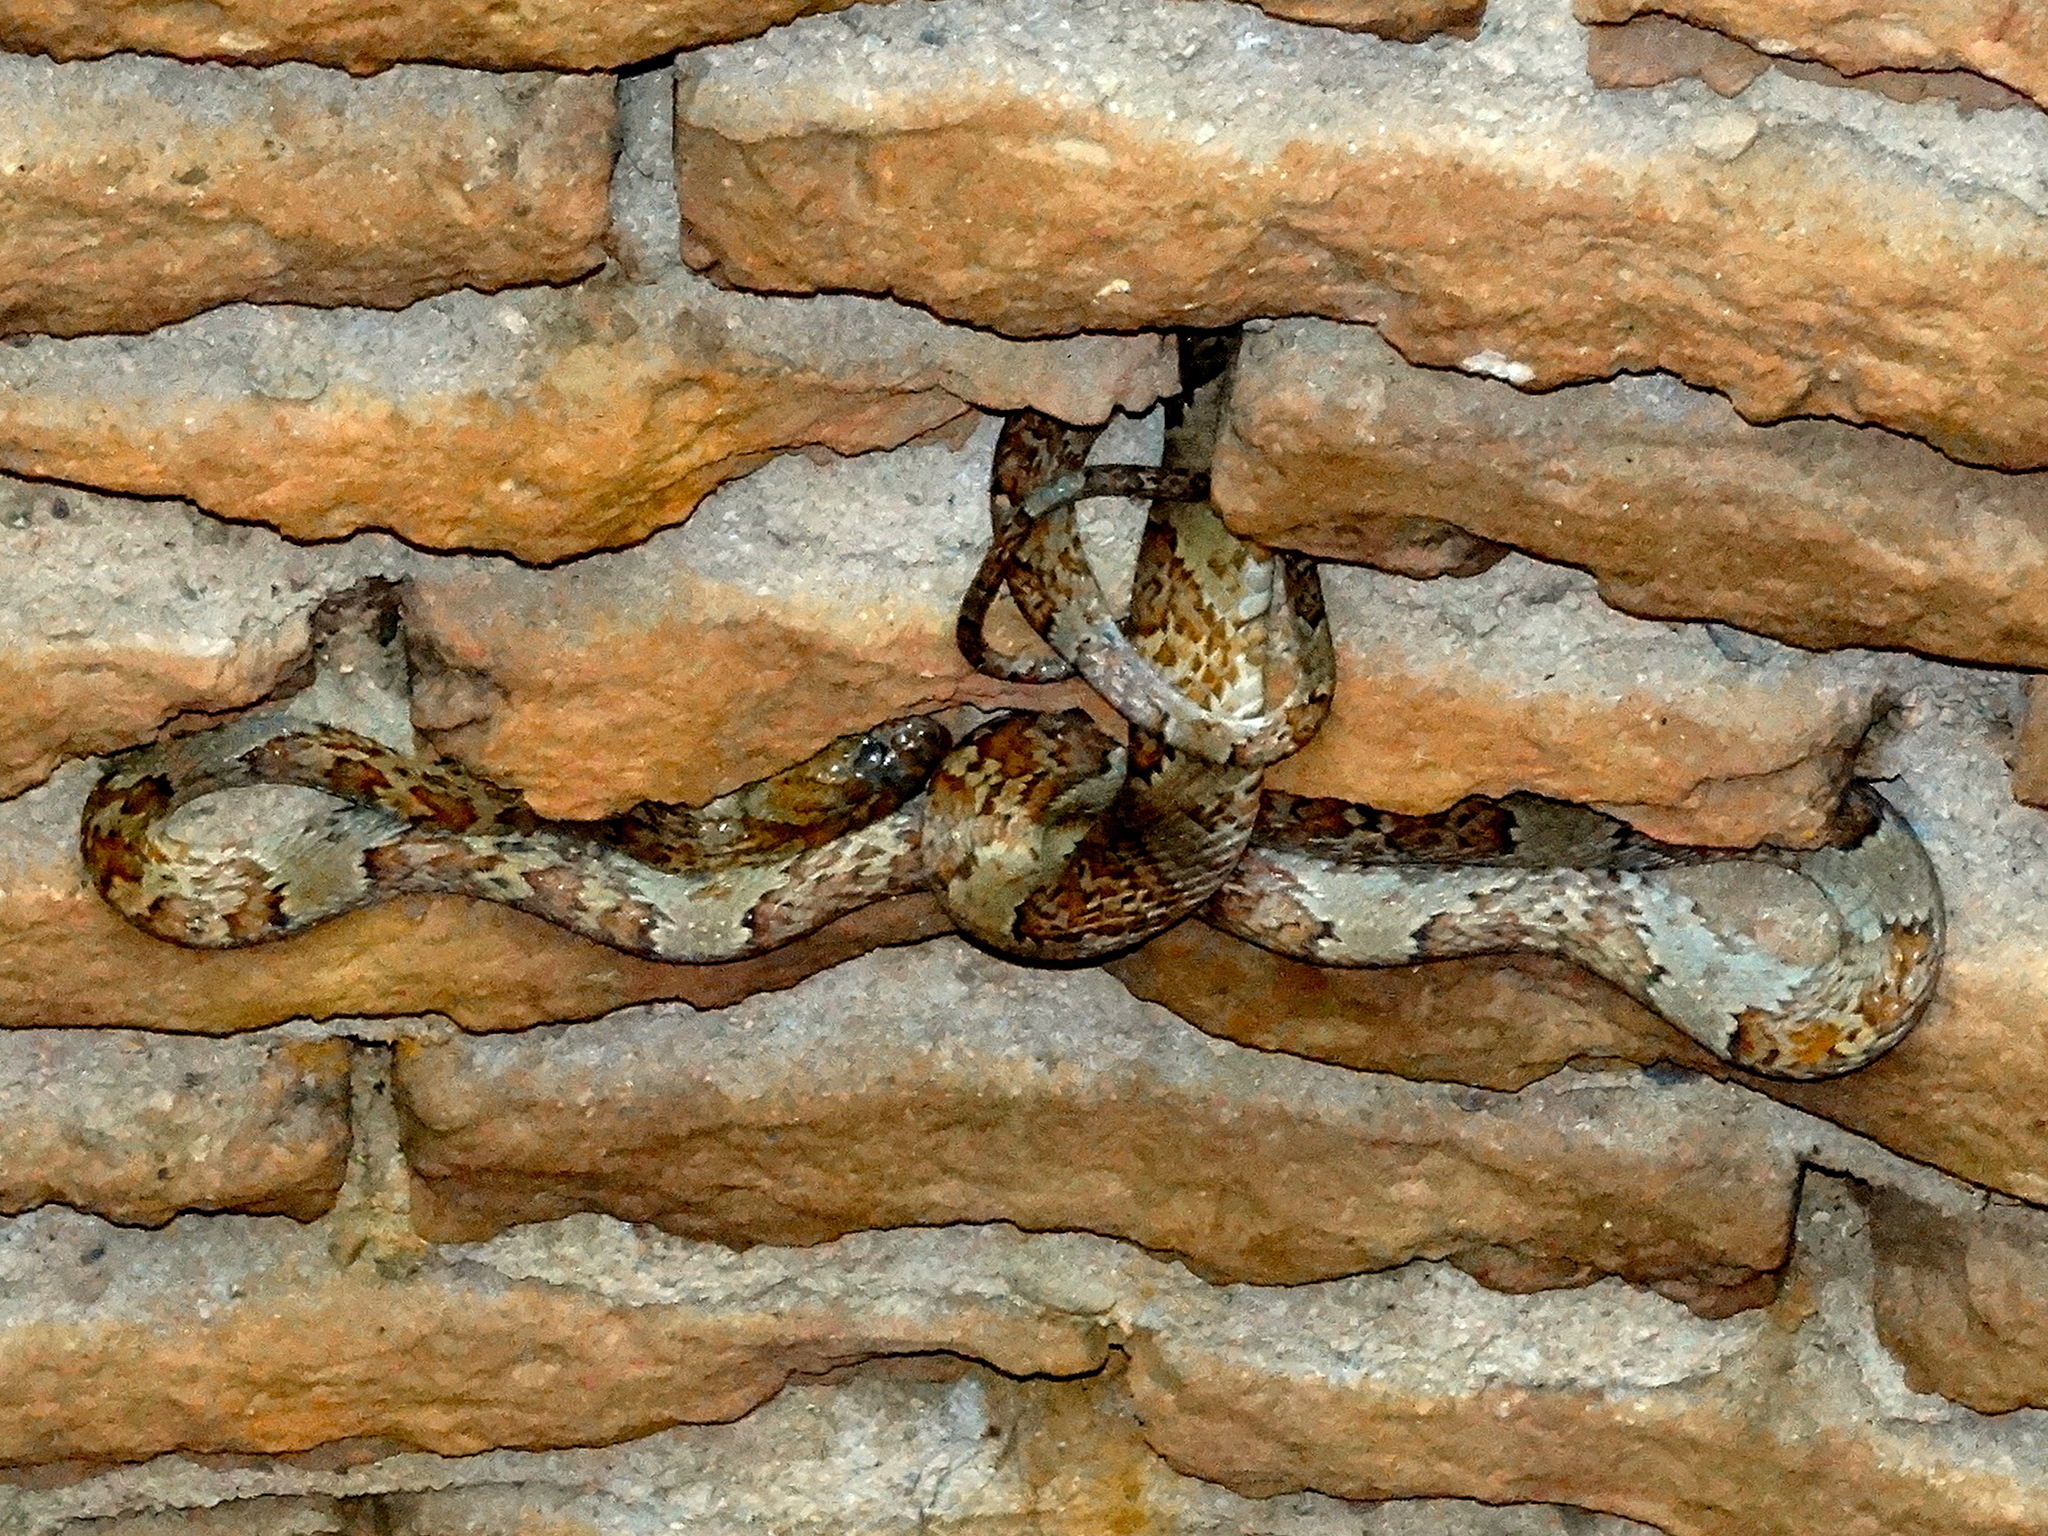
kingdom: Animalia
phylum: Chordata
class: Squamata
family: Colubridae
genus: Trimorphodon
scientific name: Trimorphodon paucimaculatus
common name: Sinaloan lyresnake
